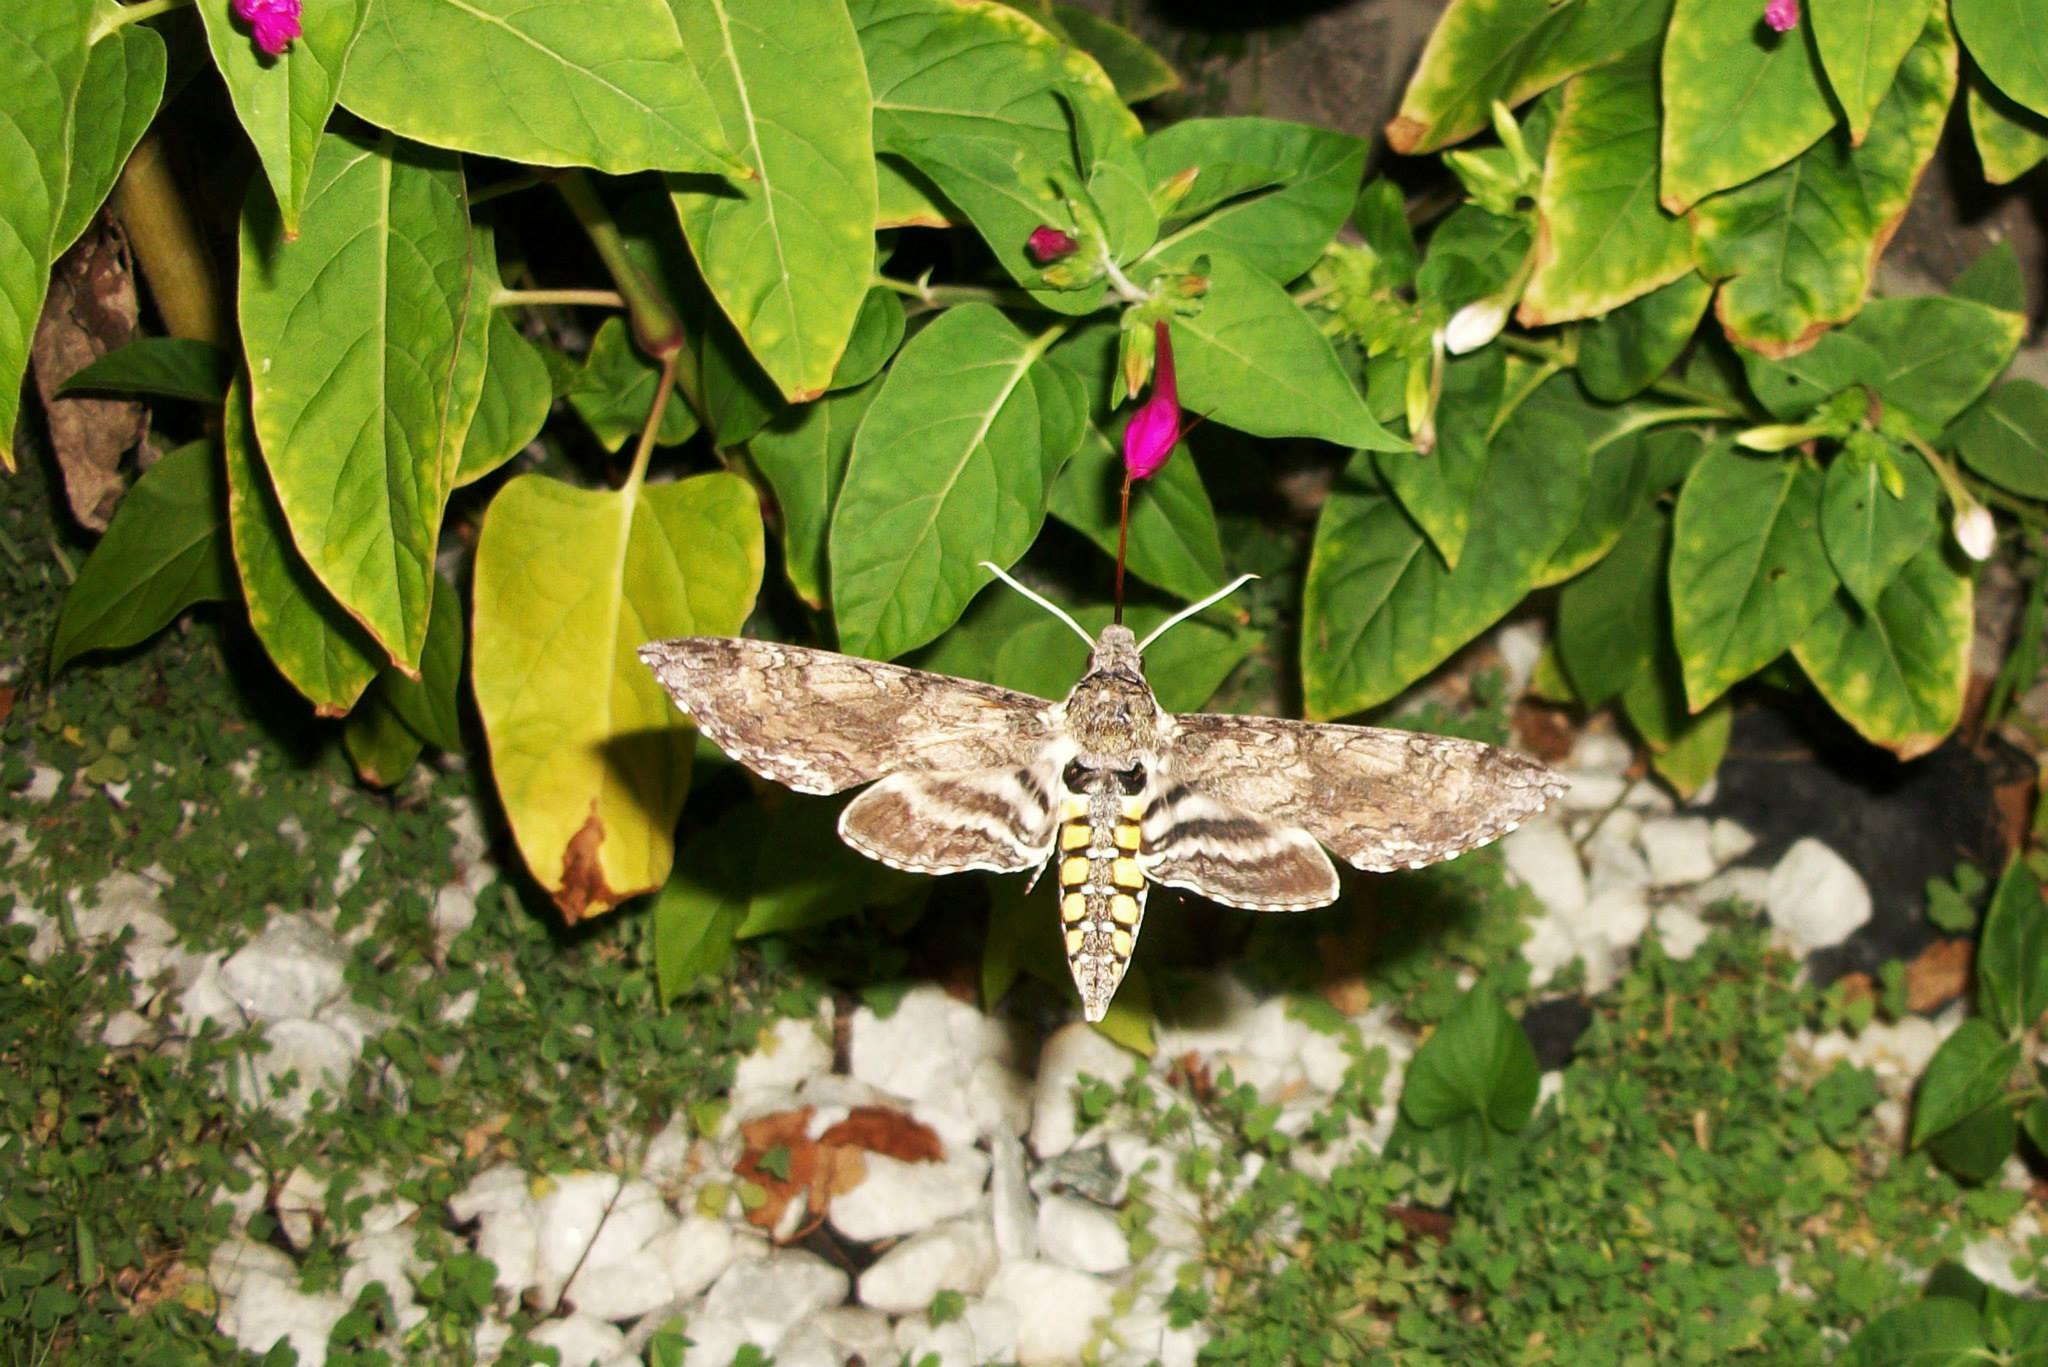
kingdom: Animalia
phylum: Arthropoda
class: Insecta
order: Lepidoptera
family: Sphingidae
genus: Hyles
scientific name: Hyles lineata
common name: White-lined sphinx
